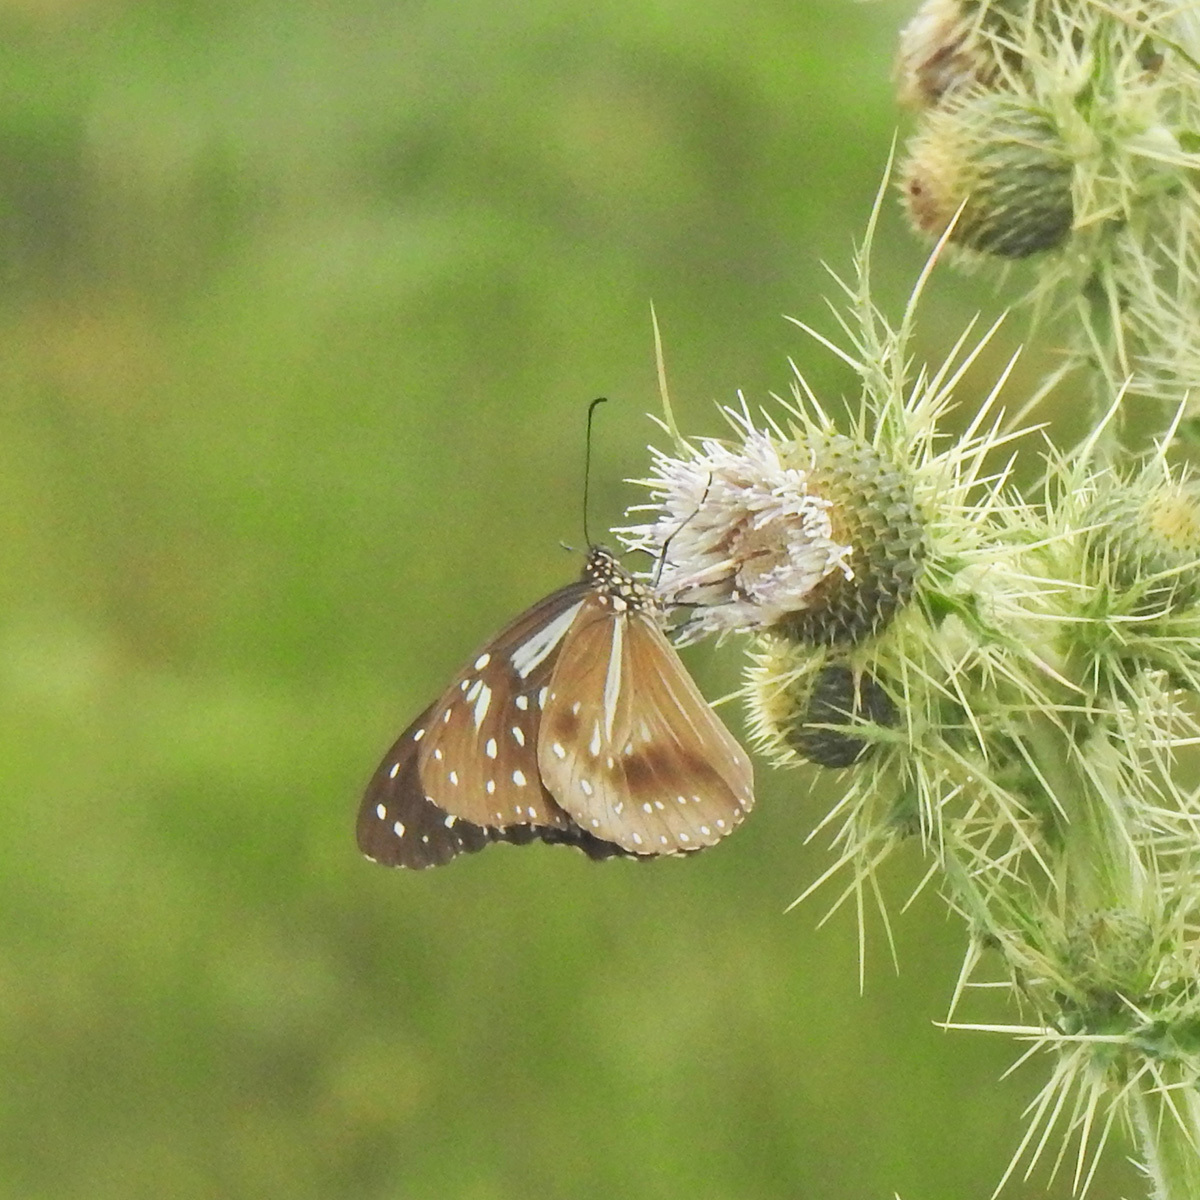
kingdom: Animalia
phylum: Arthropoda
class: Insecta
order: Lepidoptera
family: Nymphalidae
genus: Parantica
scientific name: Parantica nilgiriensis
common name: Nilgiri tiger
